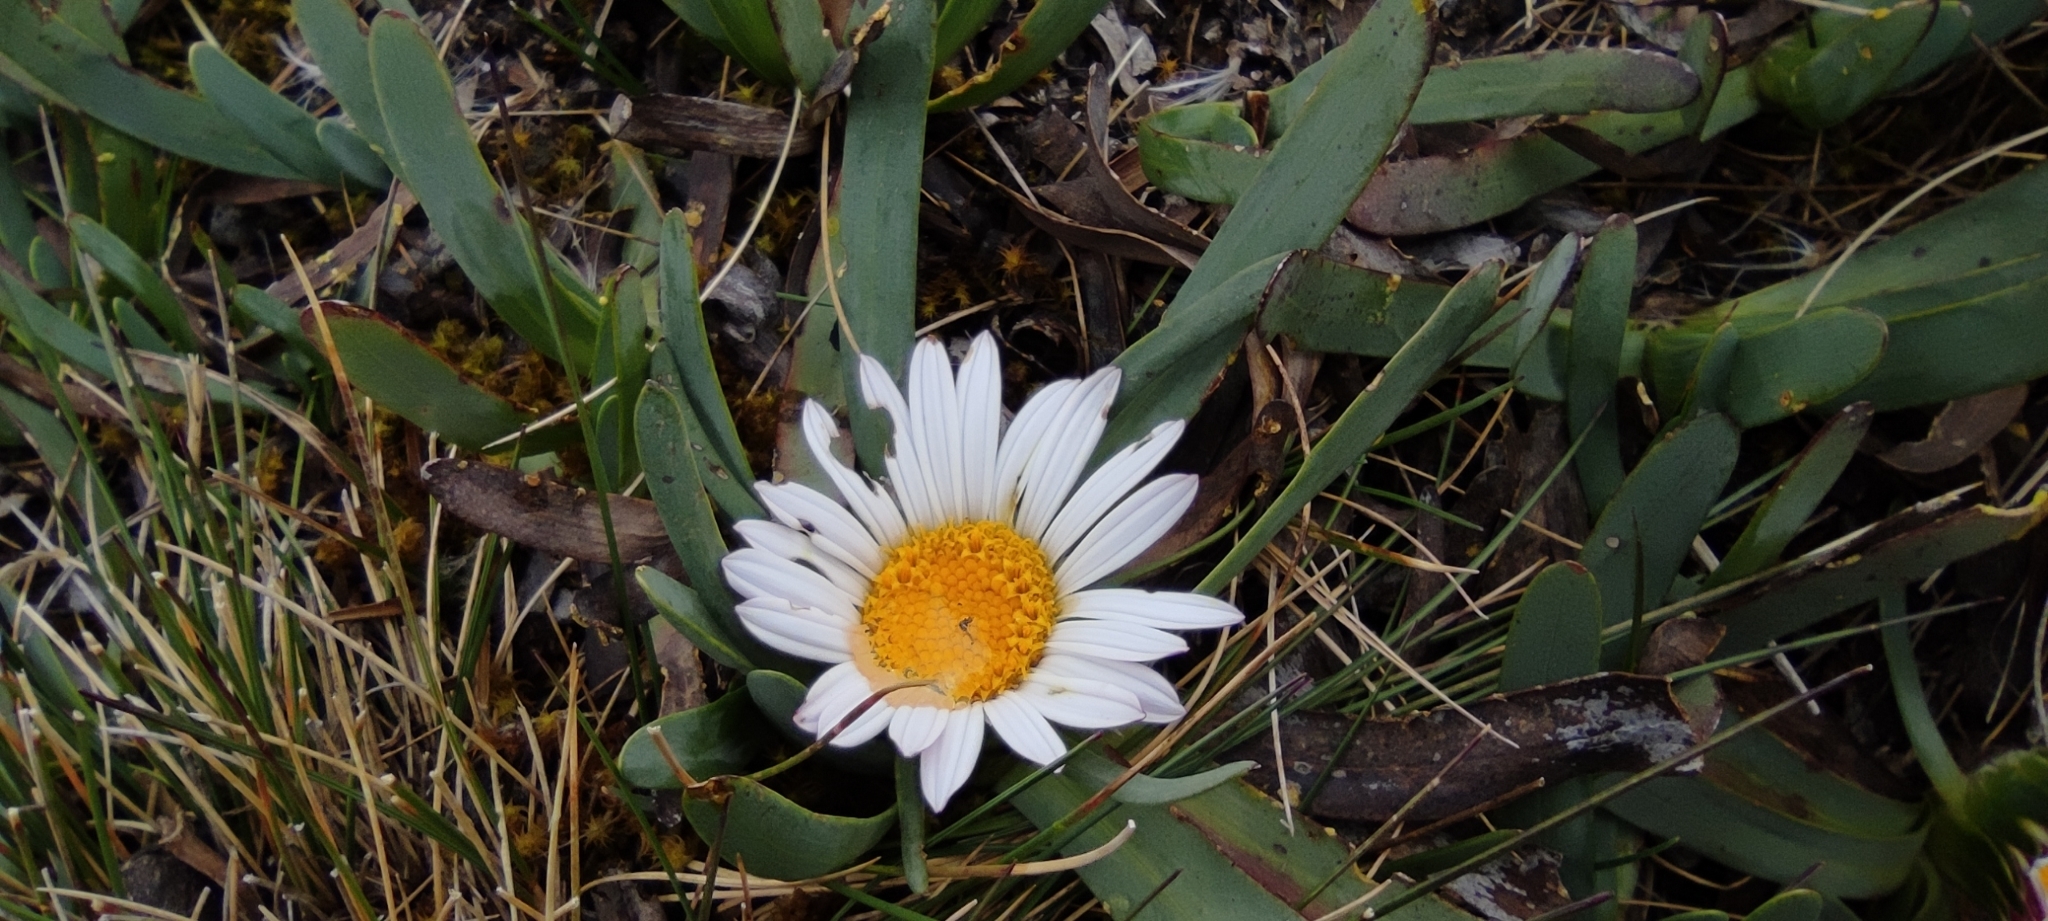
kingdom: Plantae
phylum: Tracheophyta
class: Magnoliopsida
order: Asterales
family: Asteraceae
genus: Rockhausenia
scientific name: Rockhausenia nubigena
